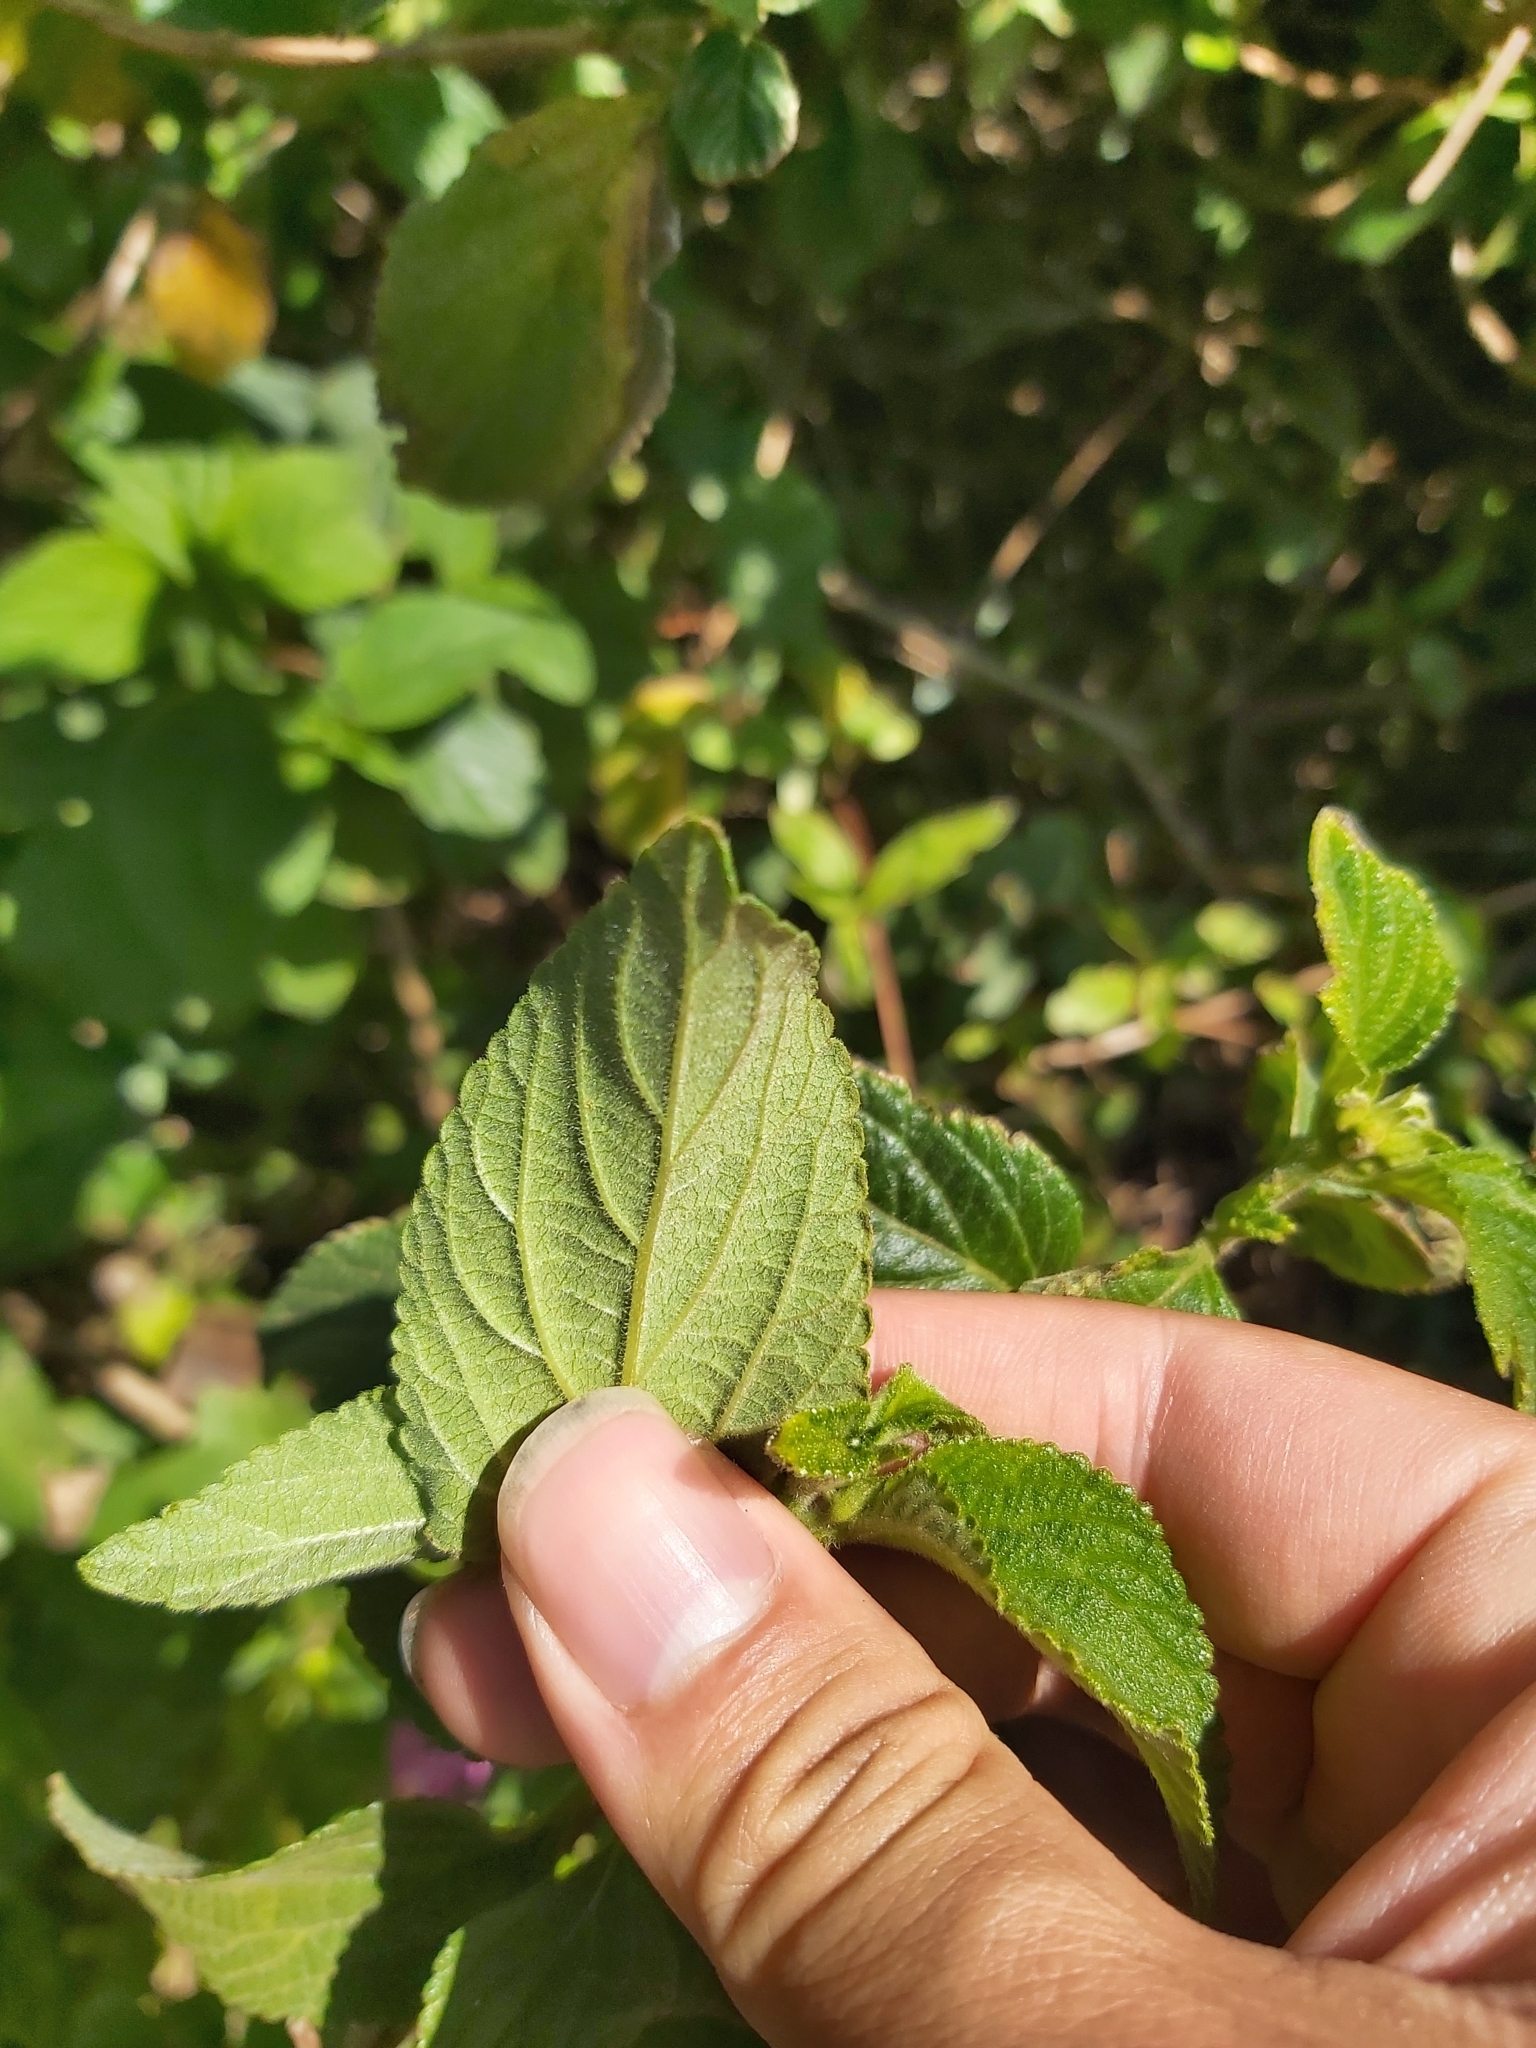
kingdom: Plantae
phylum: Tracheophyta
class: Magnoliopsida
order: Lamiales
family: Verbenaceae
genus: Lantana
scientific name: Lantana camara
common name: Lantana
